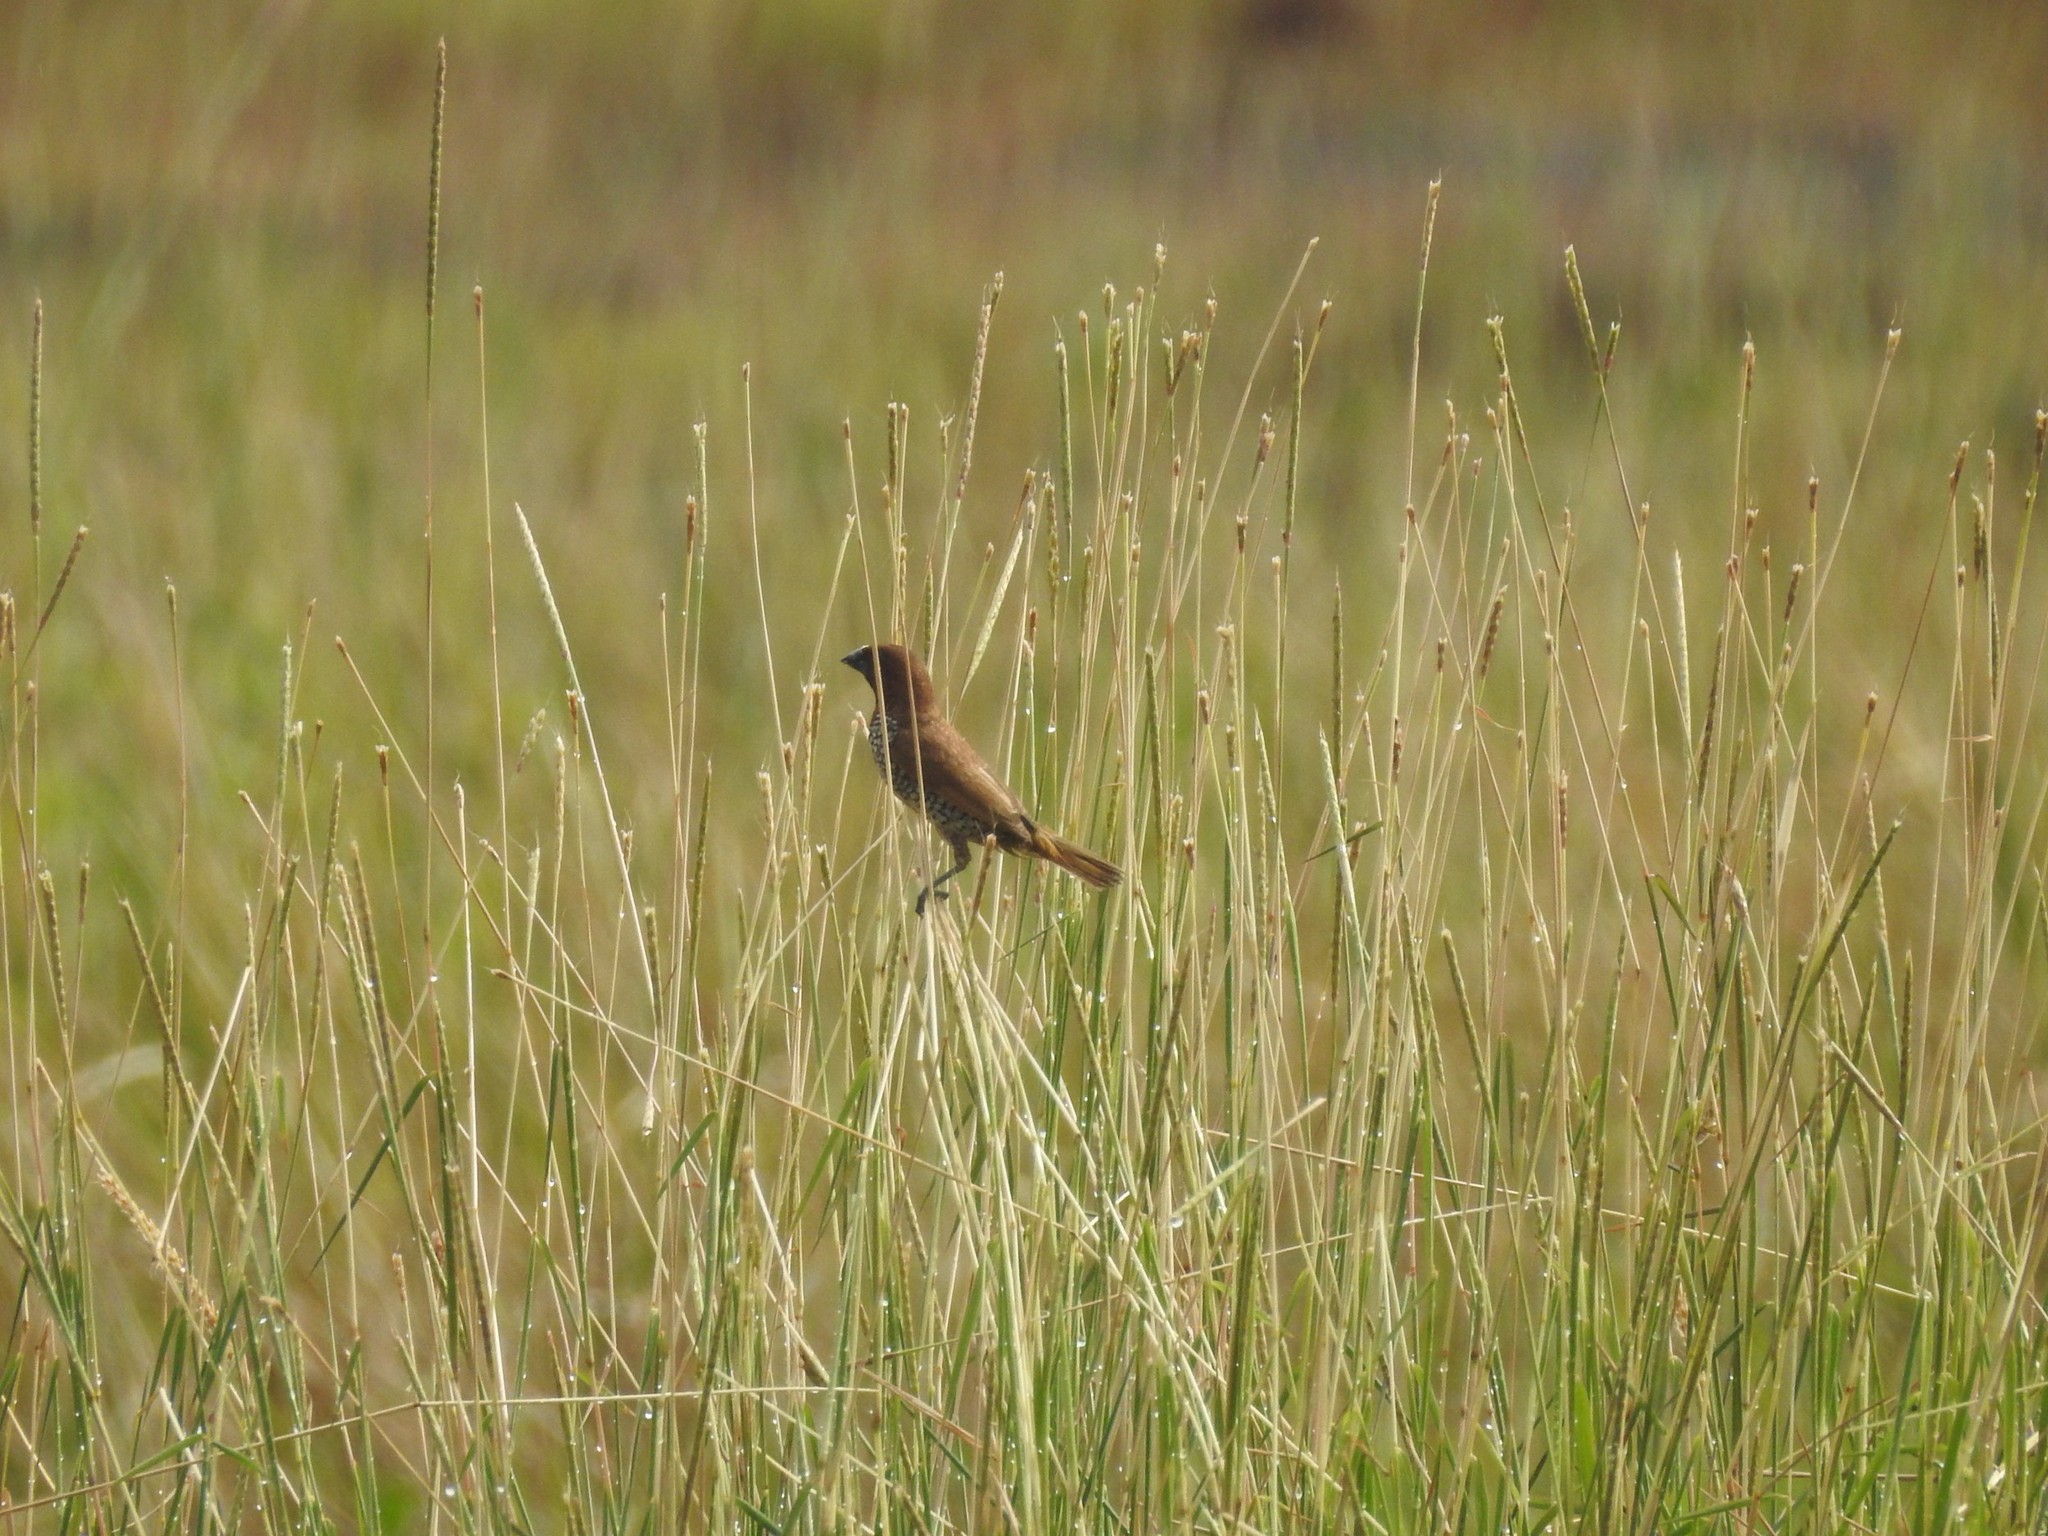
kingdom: Animalia
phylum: Chordata
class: Aves
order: Passeriformes
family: Estrildidae
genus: Lonchura
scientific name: Lonchura punctulata
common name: Scaly-breasted munia
